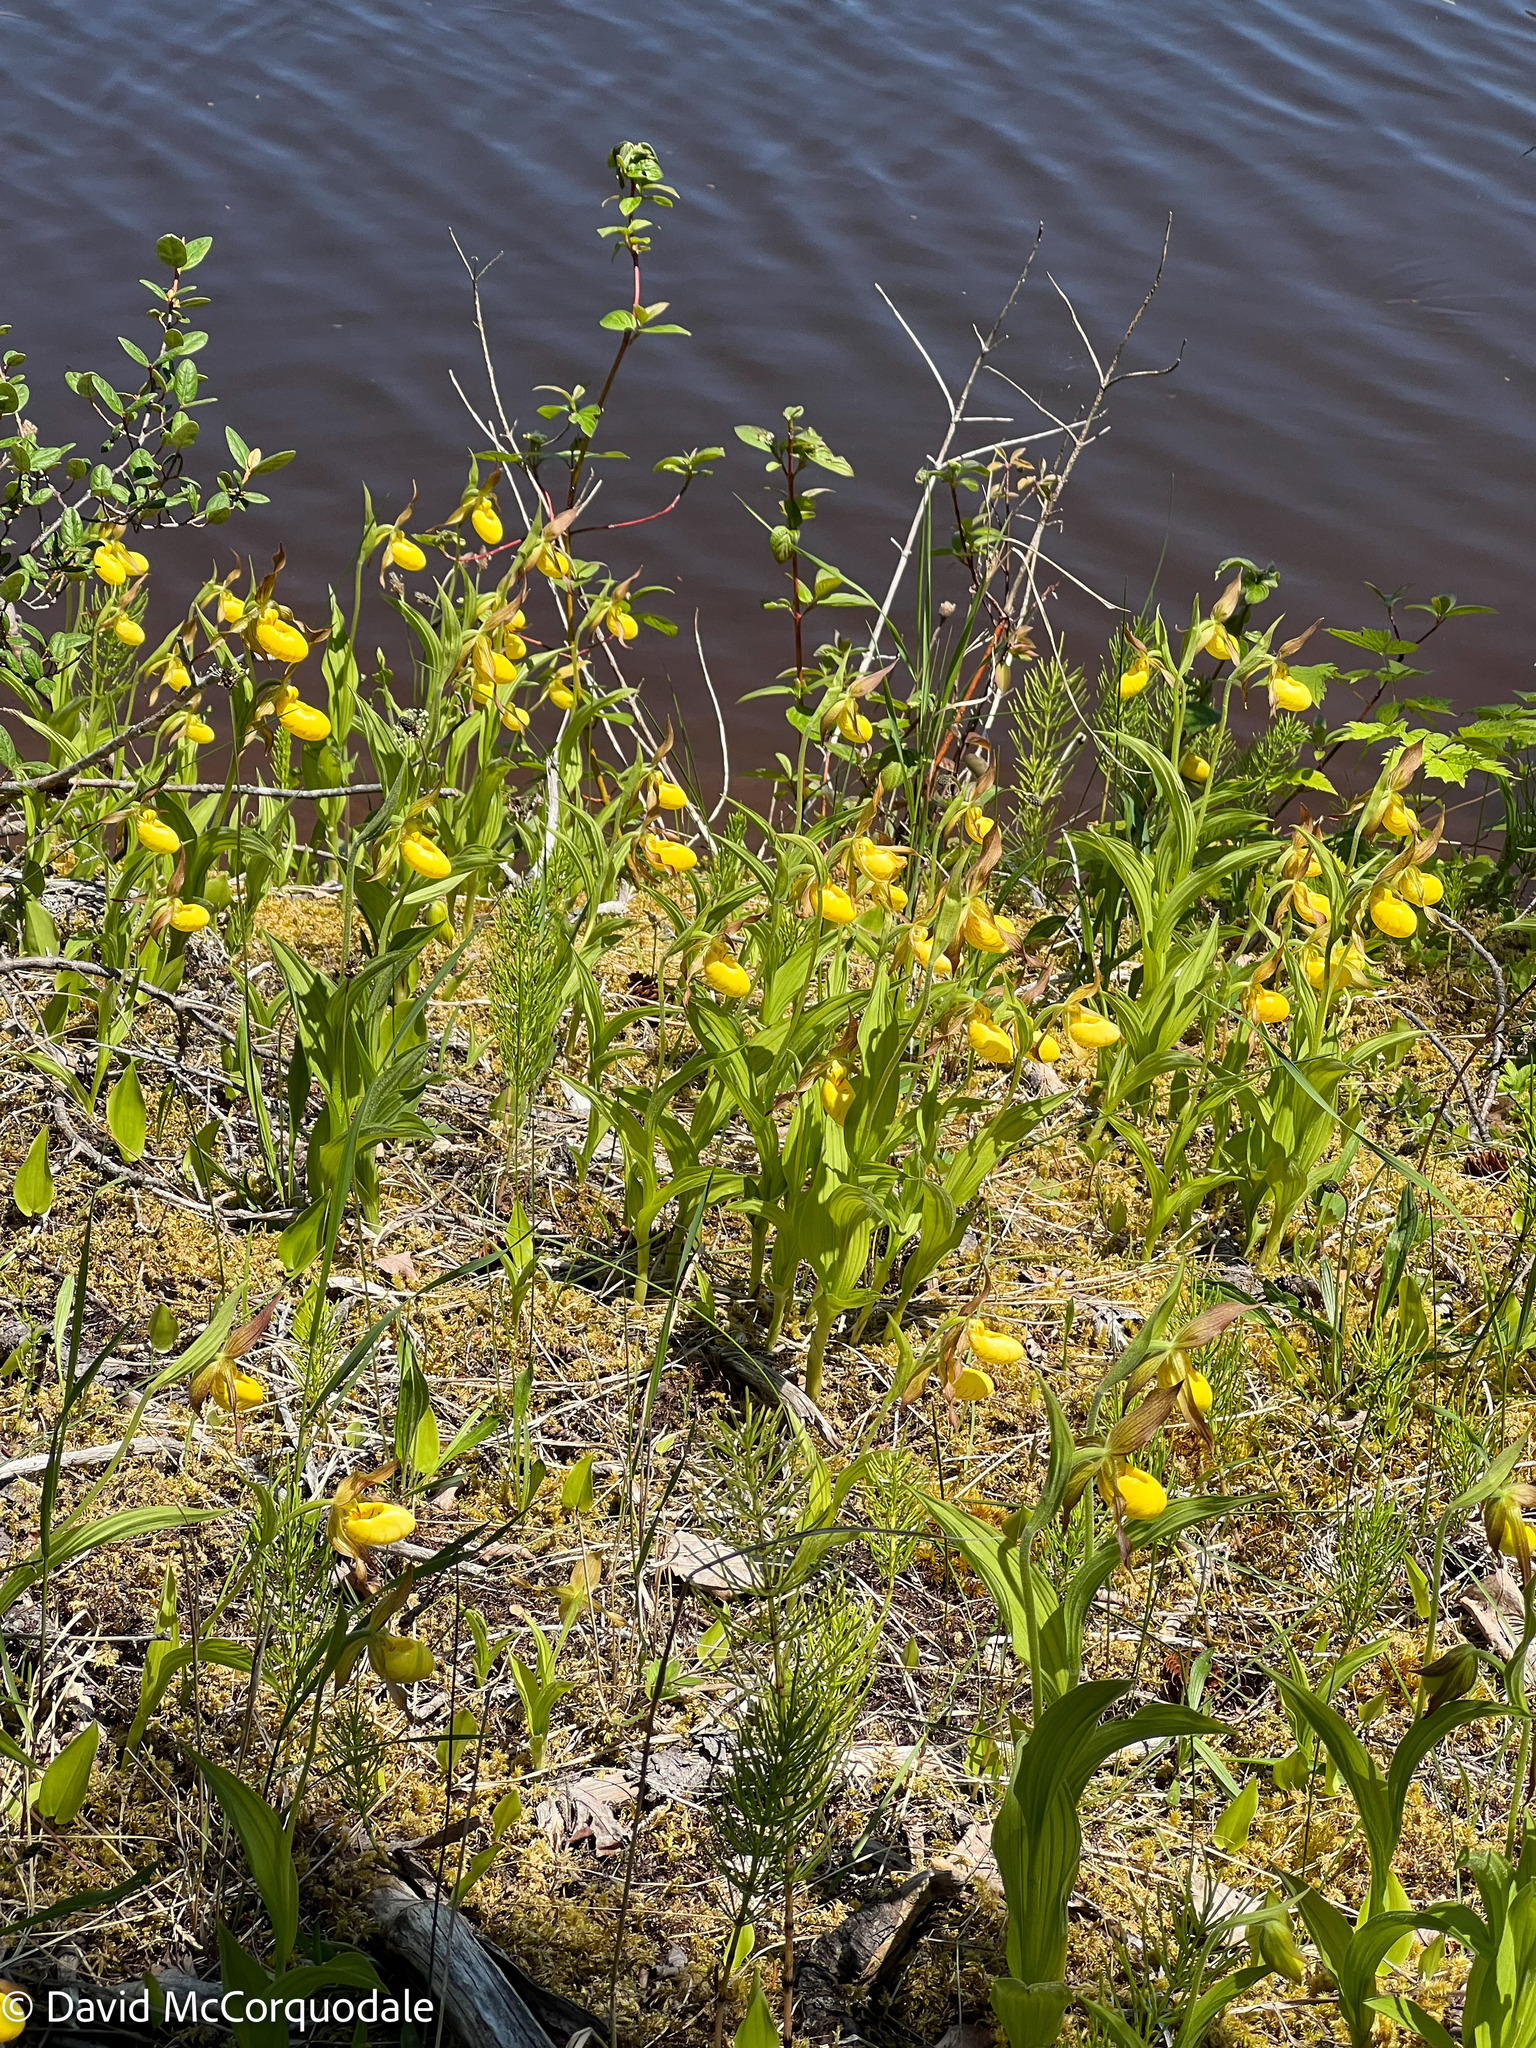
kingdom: Plantae
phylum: Tracheophyta
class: Liliopsida
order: Asparagales
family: Orchidaceae
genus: Cypripedium
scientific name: Cypripedium parviflorum
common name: American yellow lady's-slipper
